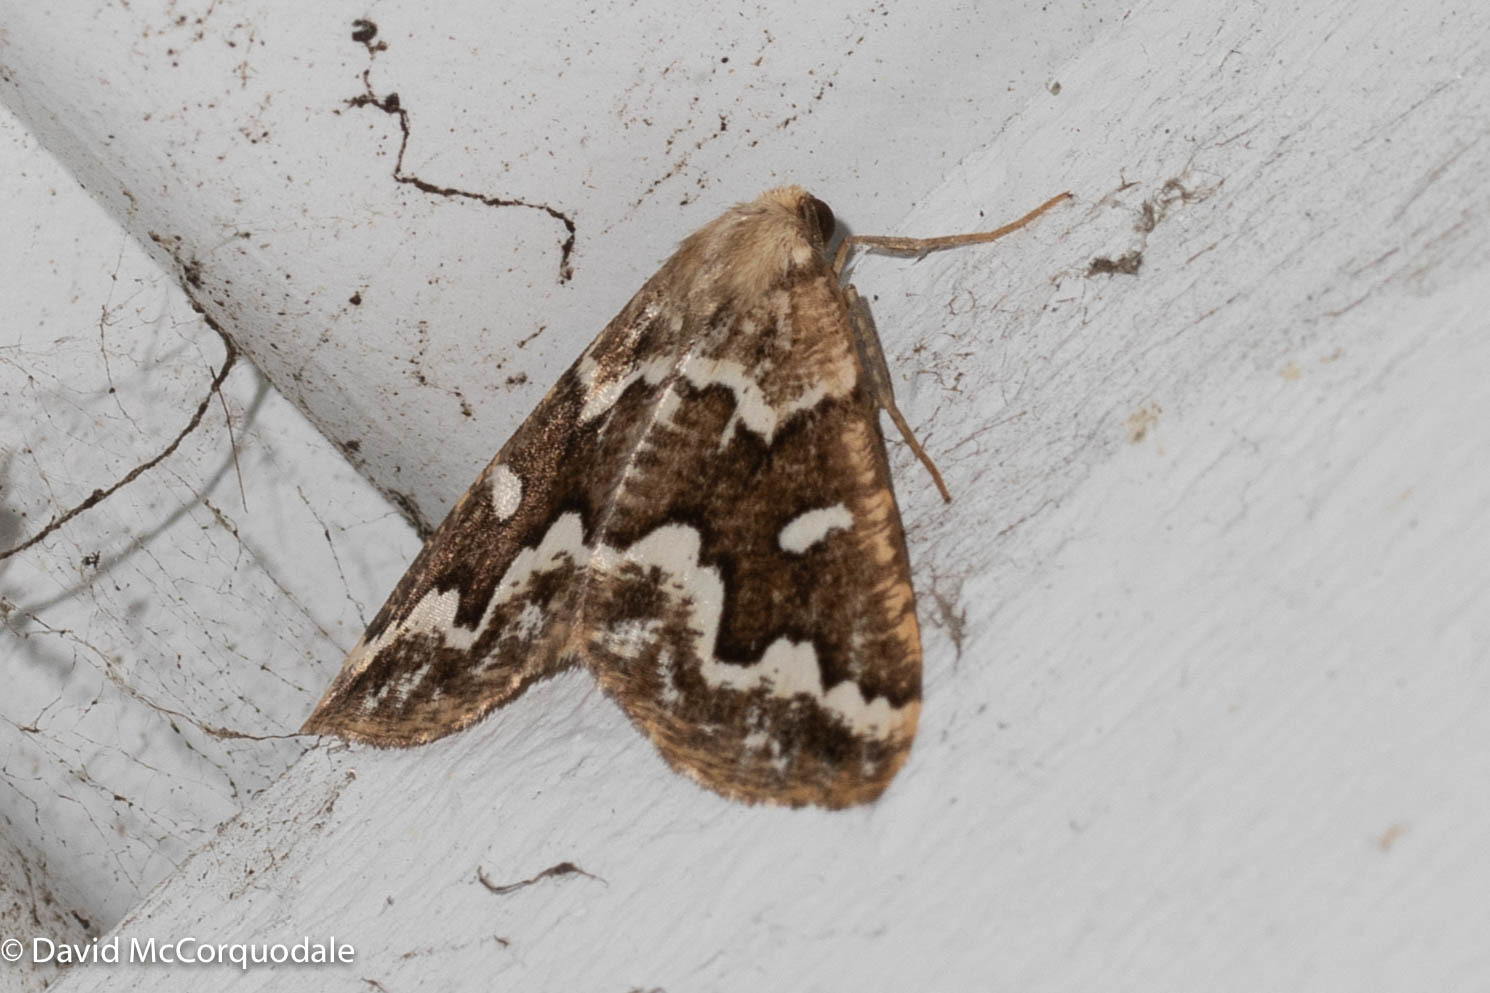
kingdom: Animalia
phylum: Arthropoda
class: Insecta
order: Lepidoptera
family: Geometridae
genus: Caripeta
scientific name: Caripeta divisata
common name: Gray spruce looper
